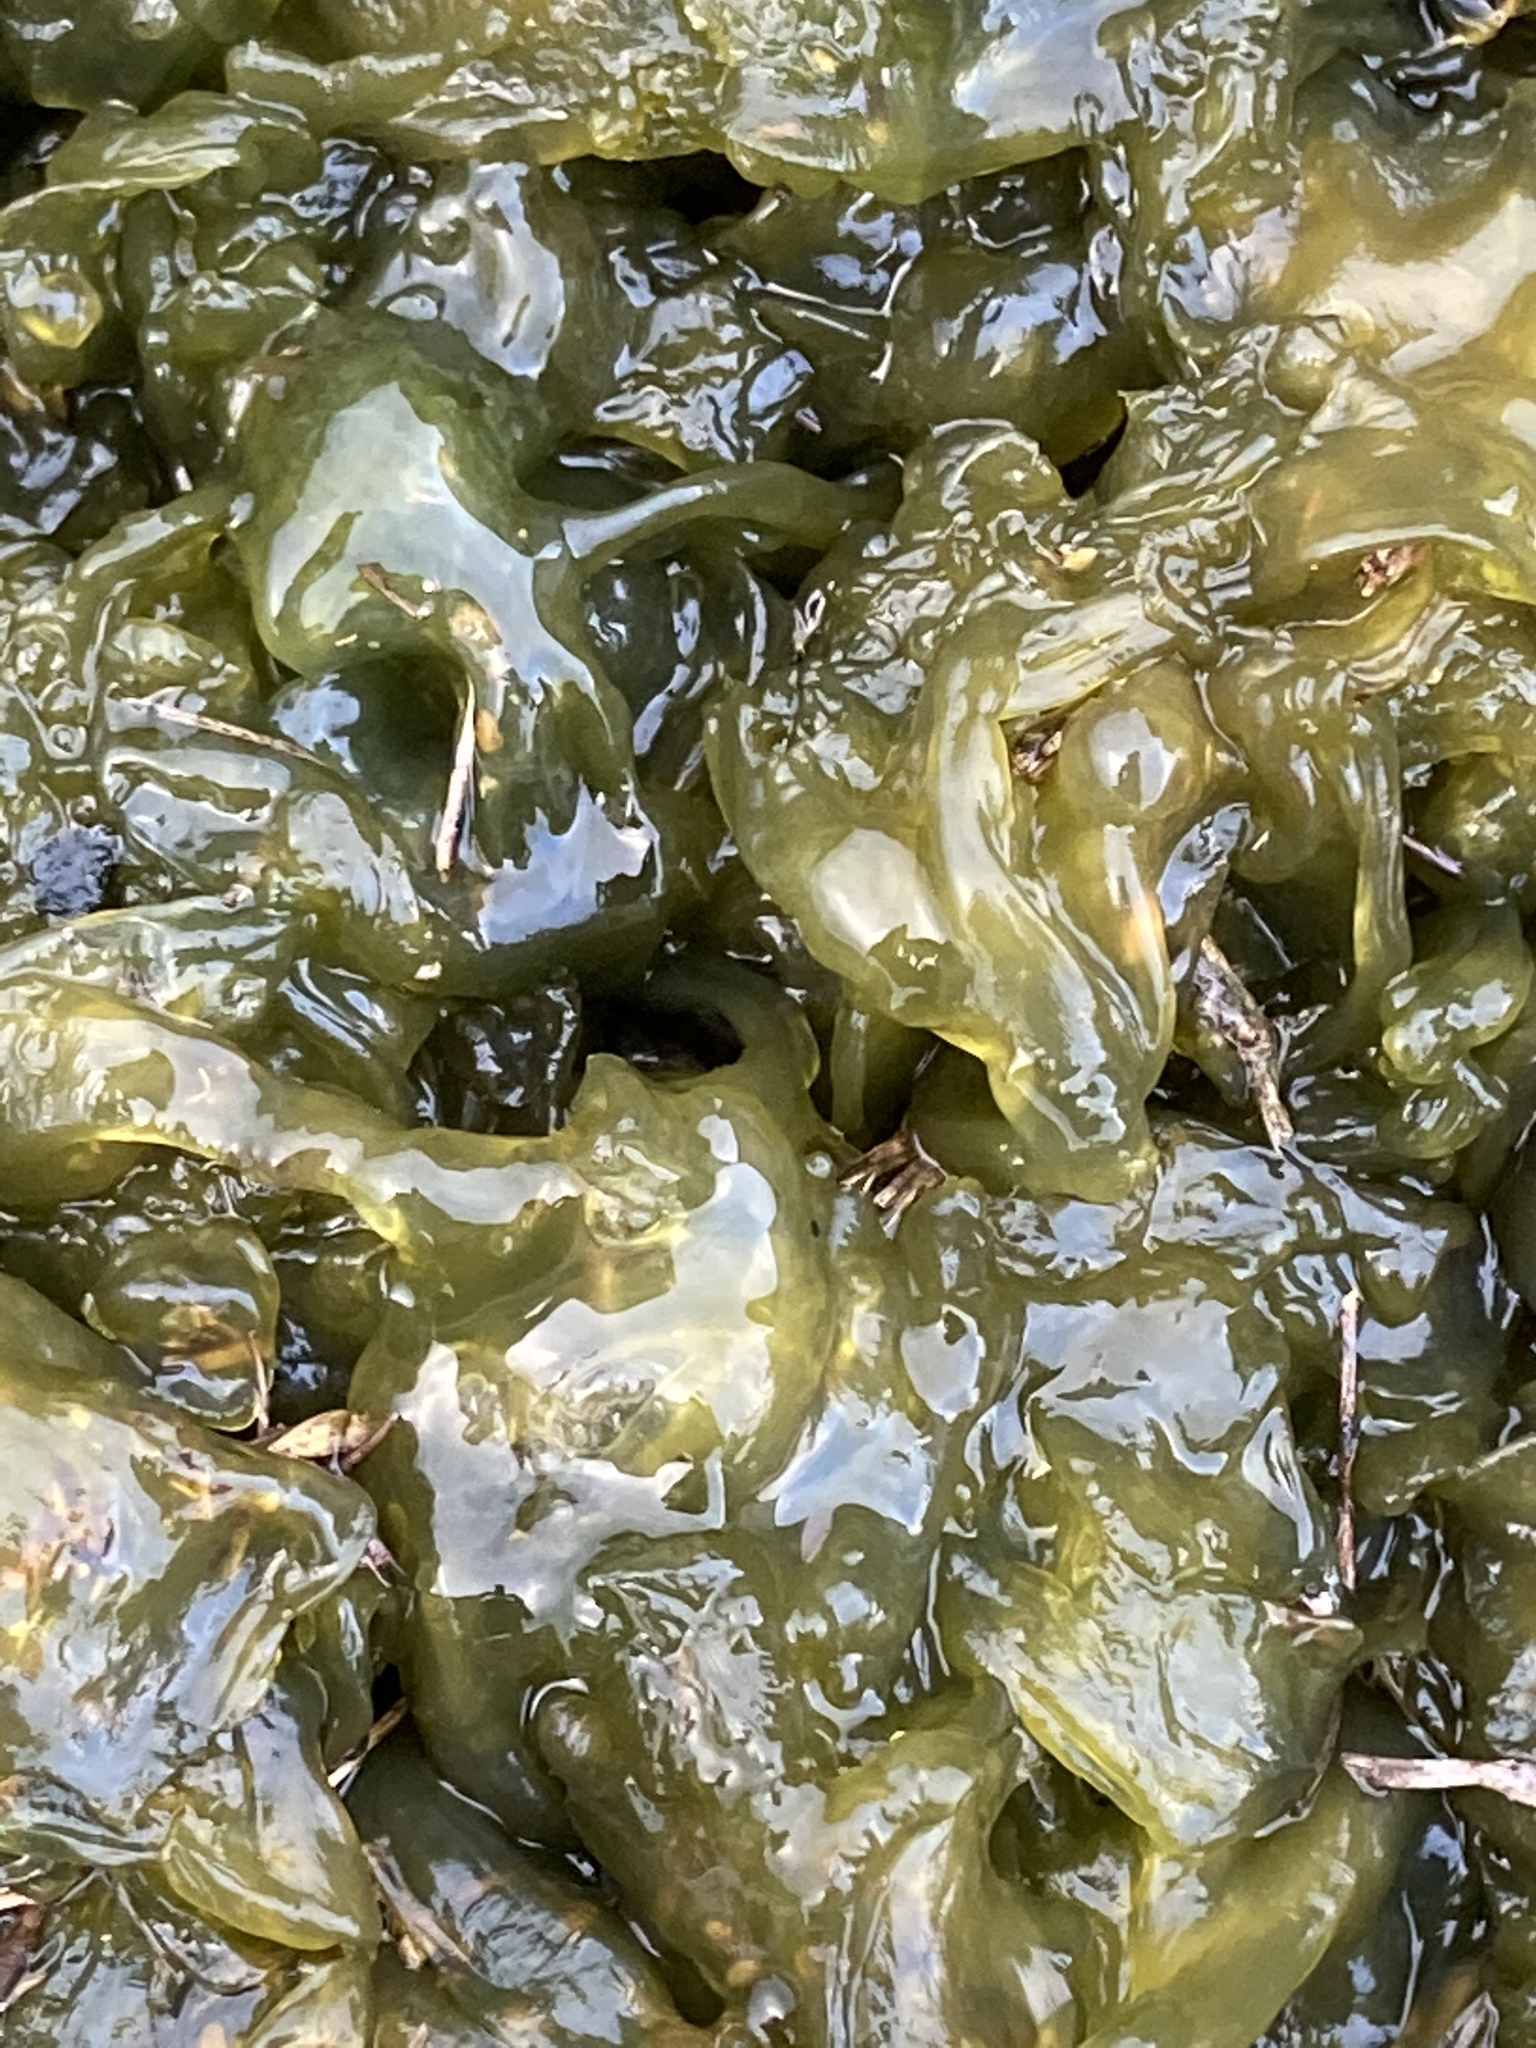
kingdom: Bacteria
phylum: Cyanobacteria
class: Cyanobacteriia
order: Cyanobacteriales
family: Nostocaceae
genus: Nostoc
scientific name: Nostoc commune
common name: Star jelly
